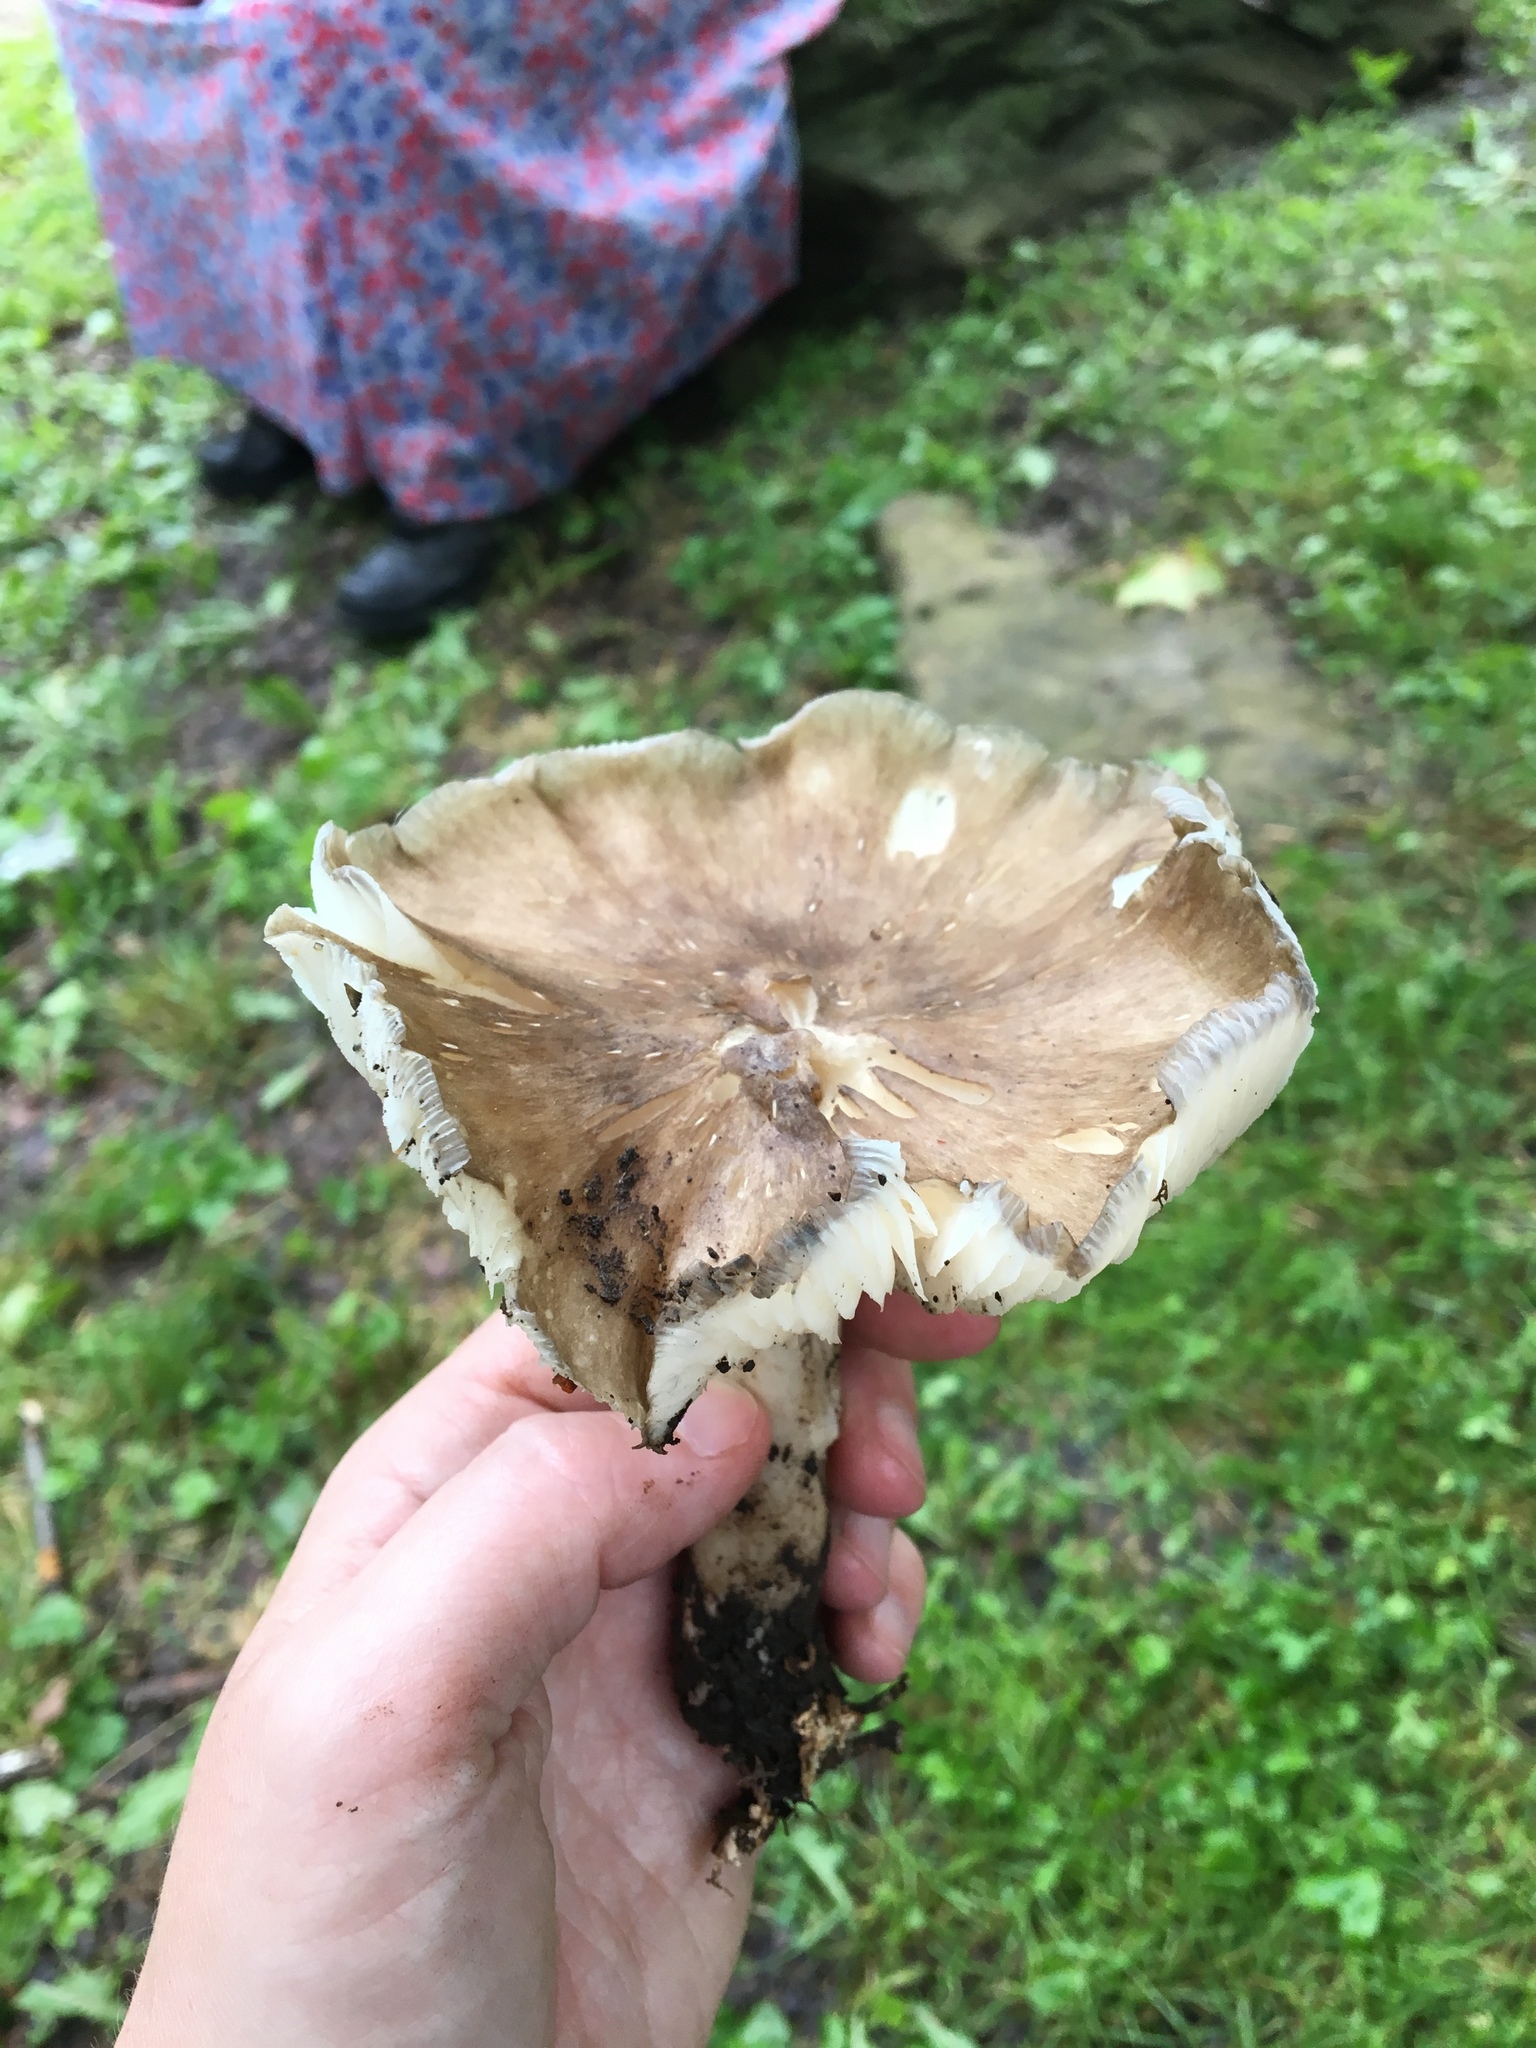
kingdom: Fungi
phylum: Basidiomycota
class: Agaricomycetes
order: Agaricales
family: Tricholomataceae
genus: Megacollybia
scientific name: Megacollybia rodmanii
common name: Eastern american platterful mushroom
